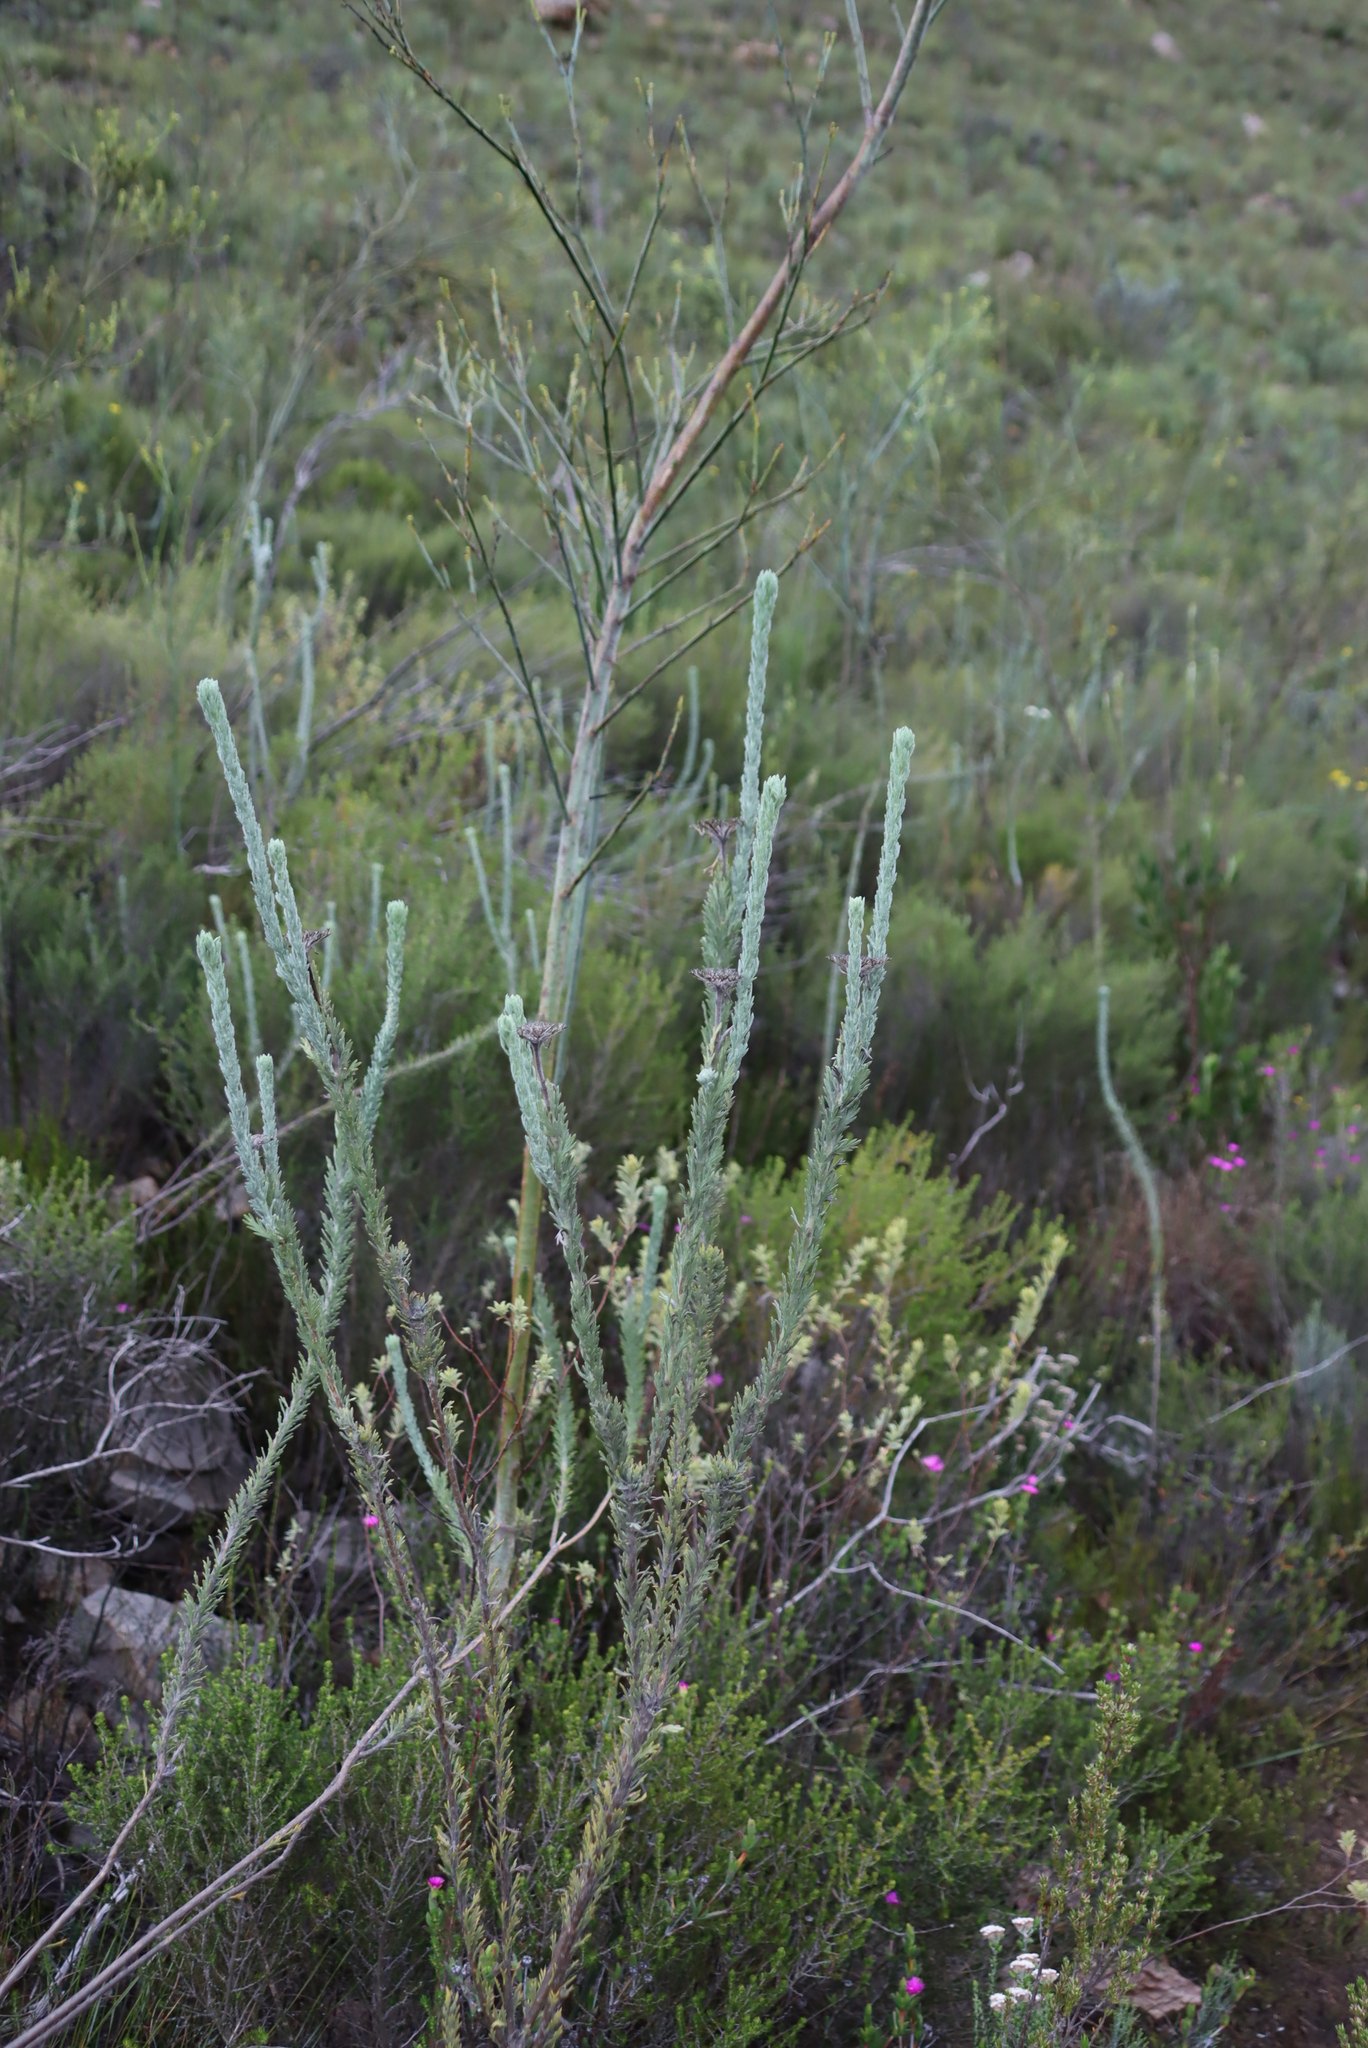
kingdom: Plantae
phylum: Tracheophyta
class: Magnoliopsida
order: Santalales
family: Thesiaceae
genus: Thesium
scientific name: Thesium strictum
